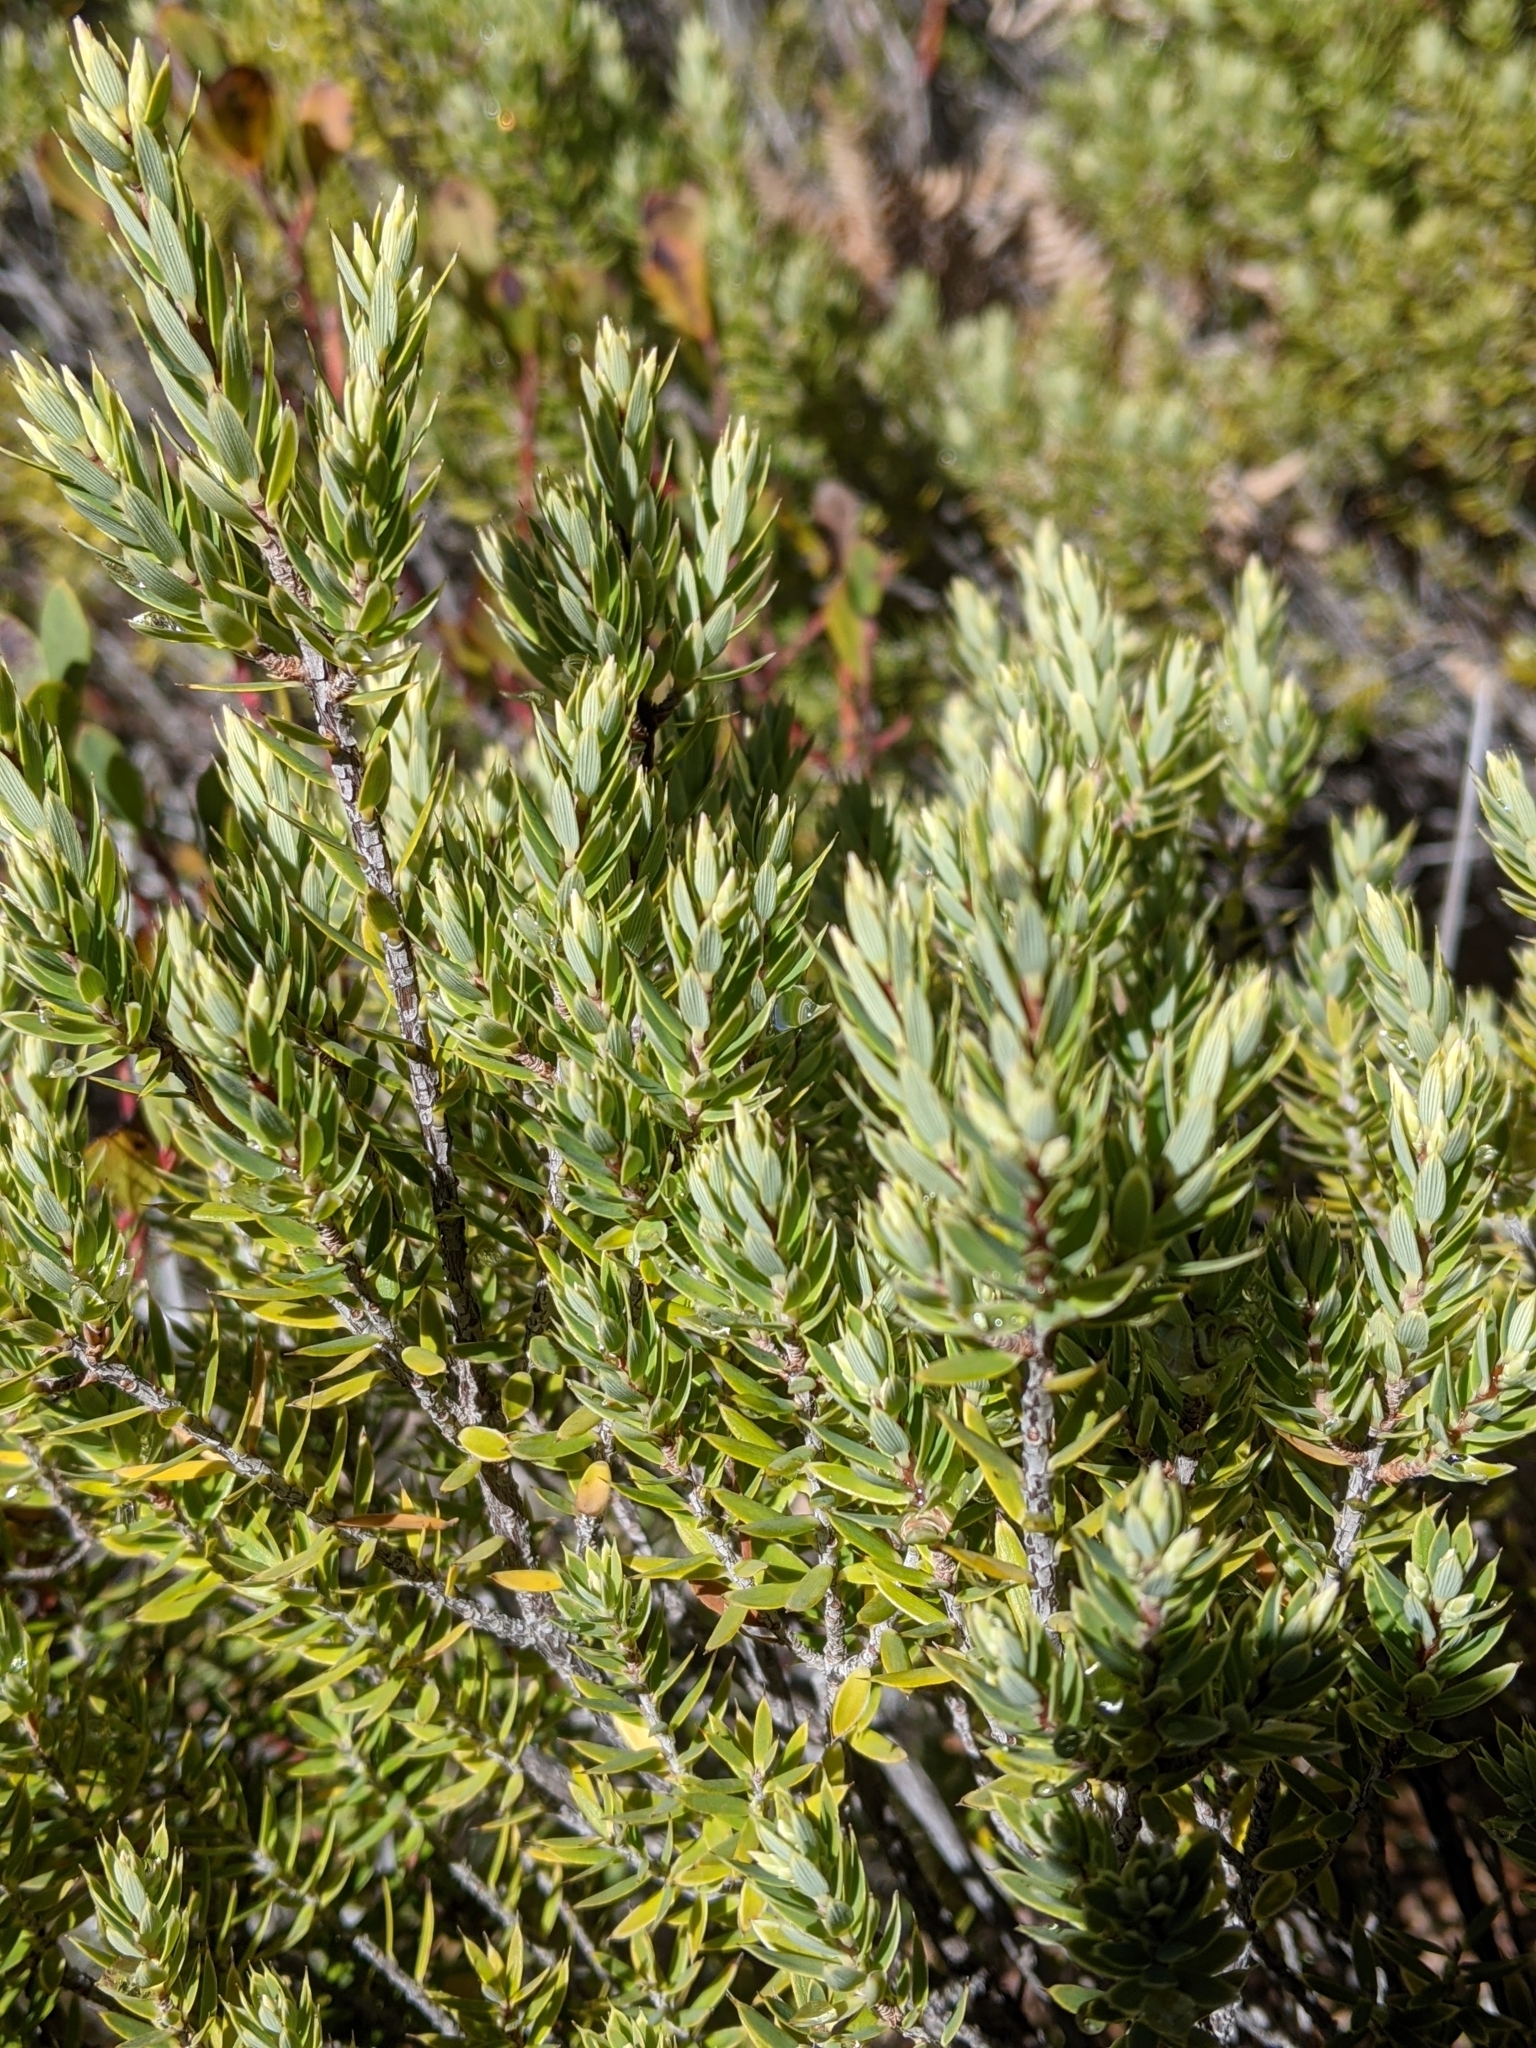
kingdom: Plantae
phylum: Tracheophyta
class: Magnoliopsida
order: Ericales
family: Ericaceae
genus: Leptecophylla
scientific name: Leptecophylla tameiameiae
